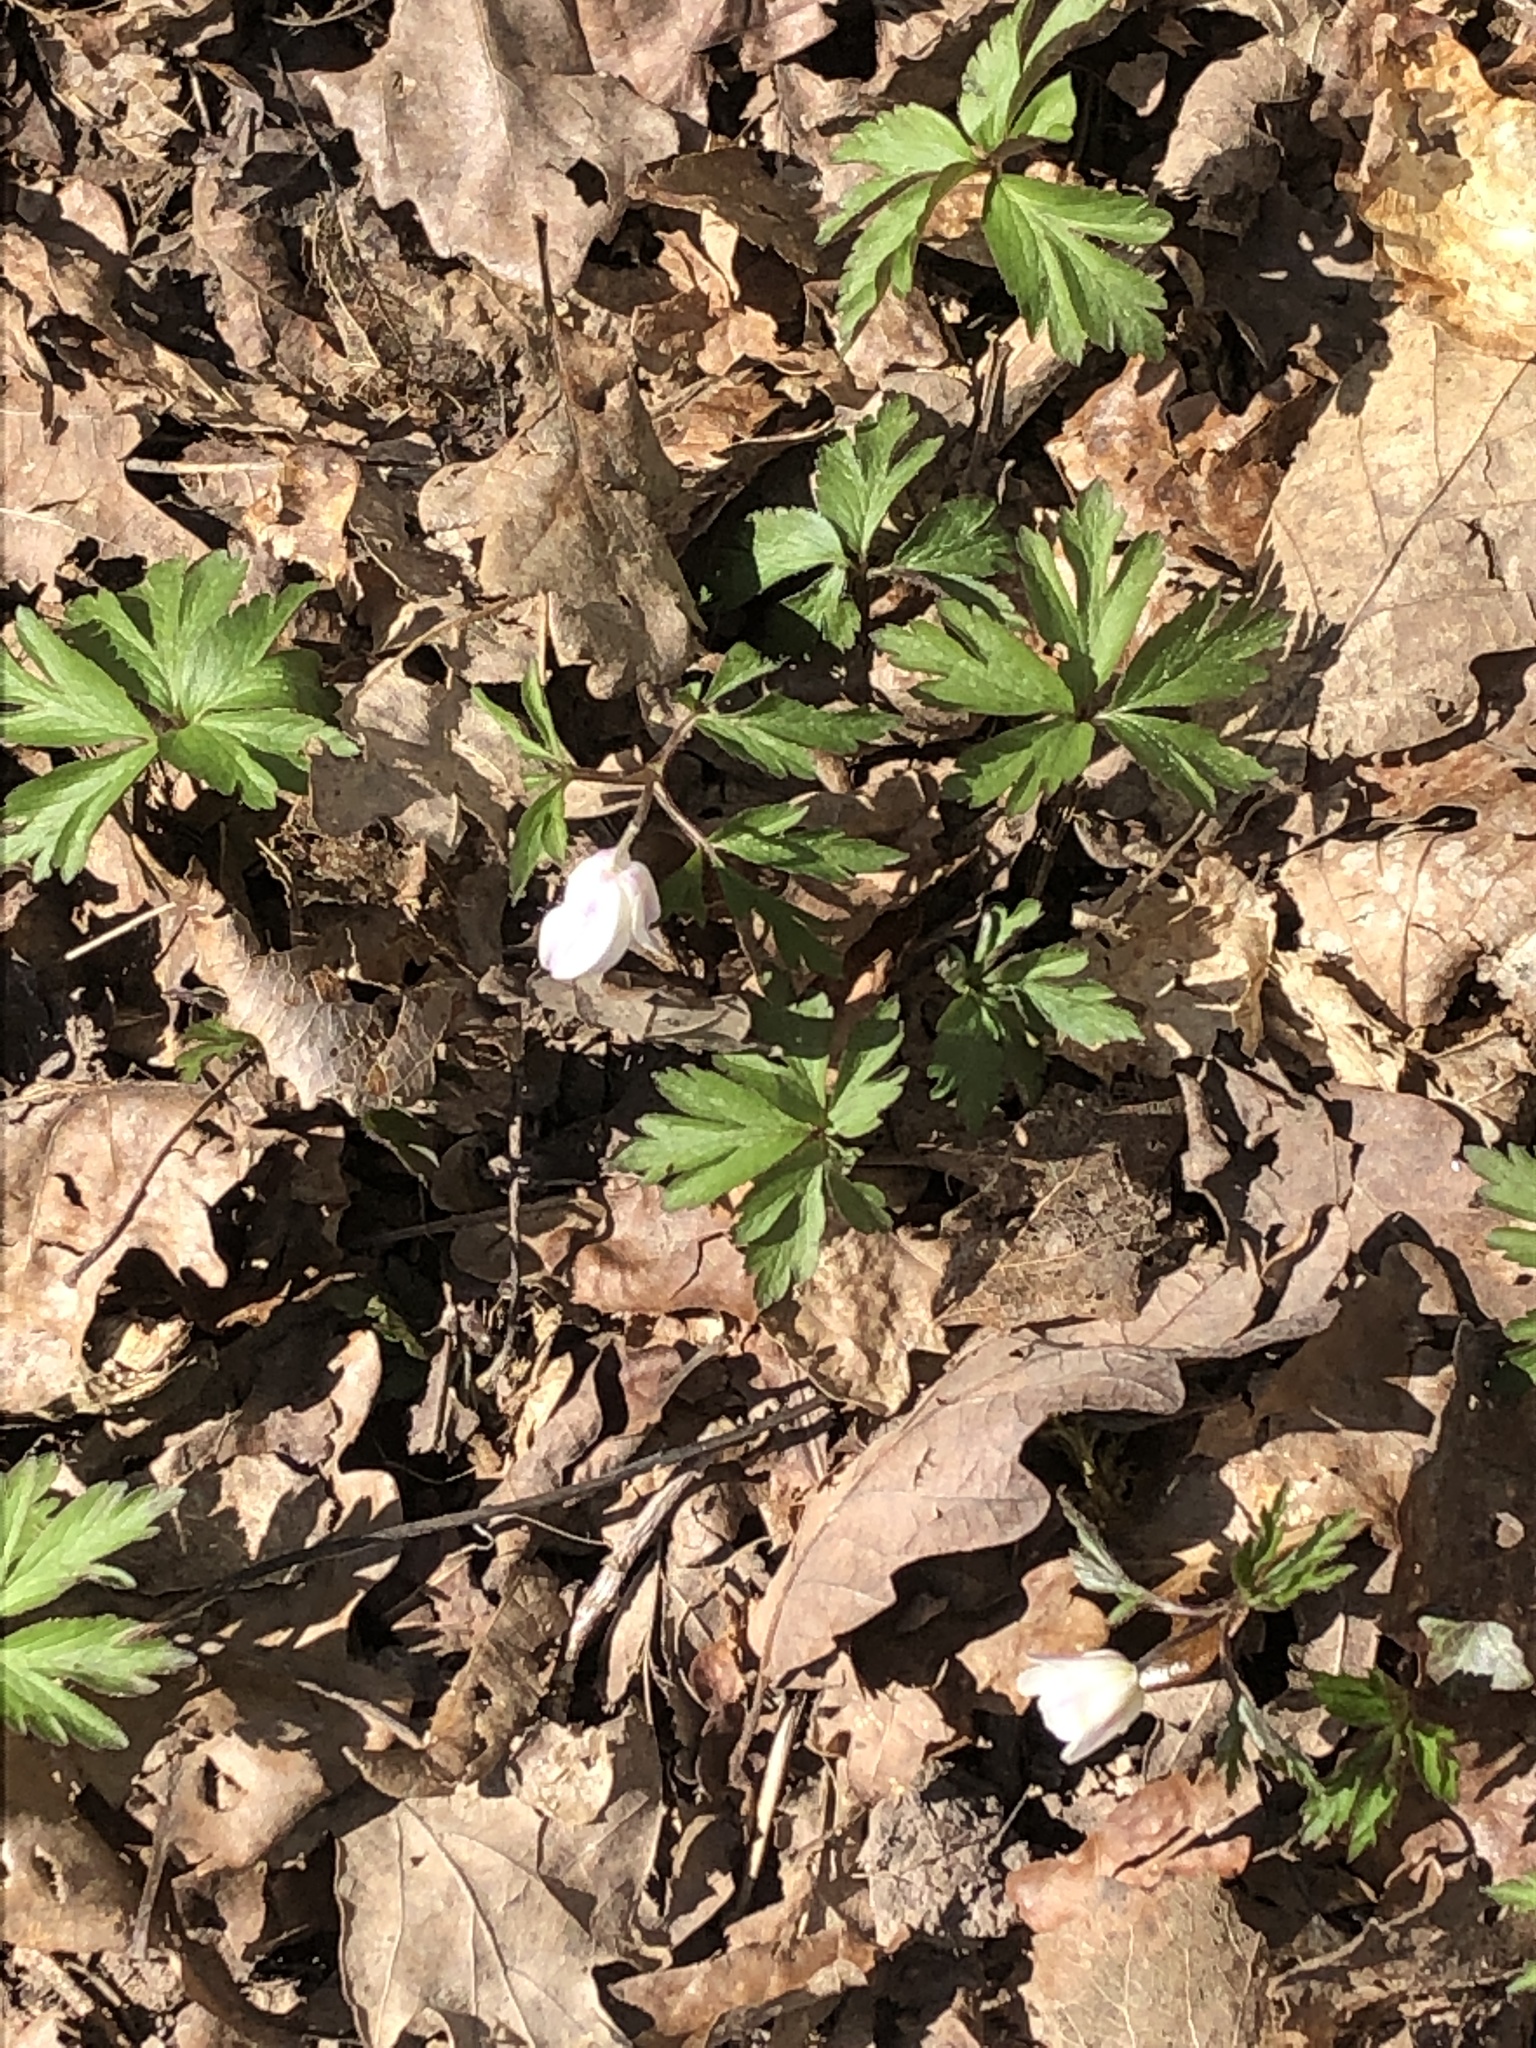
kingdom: Plantae
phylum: Tracheophyta
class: Magnoliopsida
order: Ranunculales
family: Ranunculaceae
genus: Anemone
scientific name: Anemone nemorosa
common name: Wood anemone
